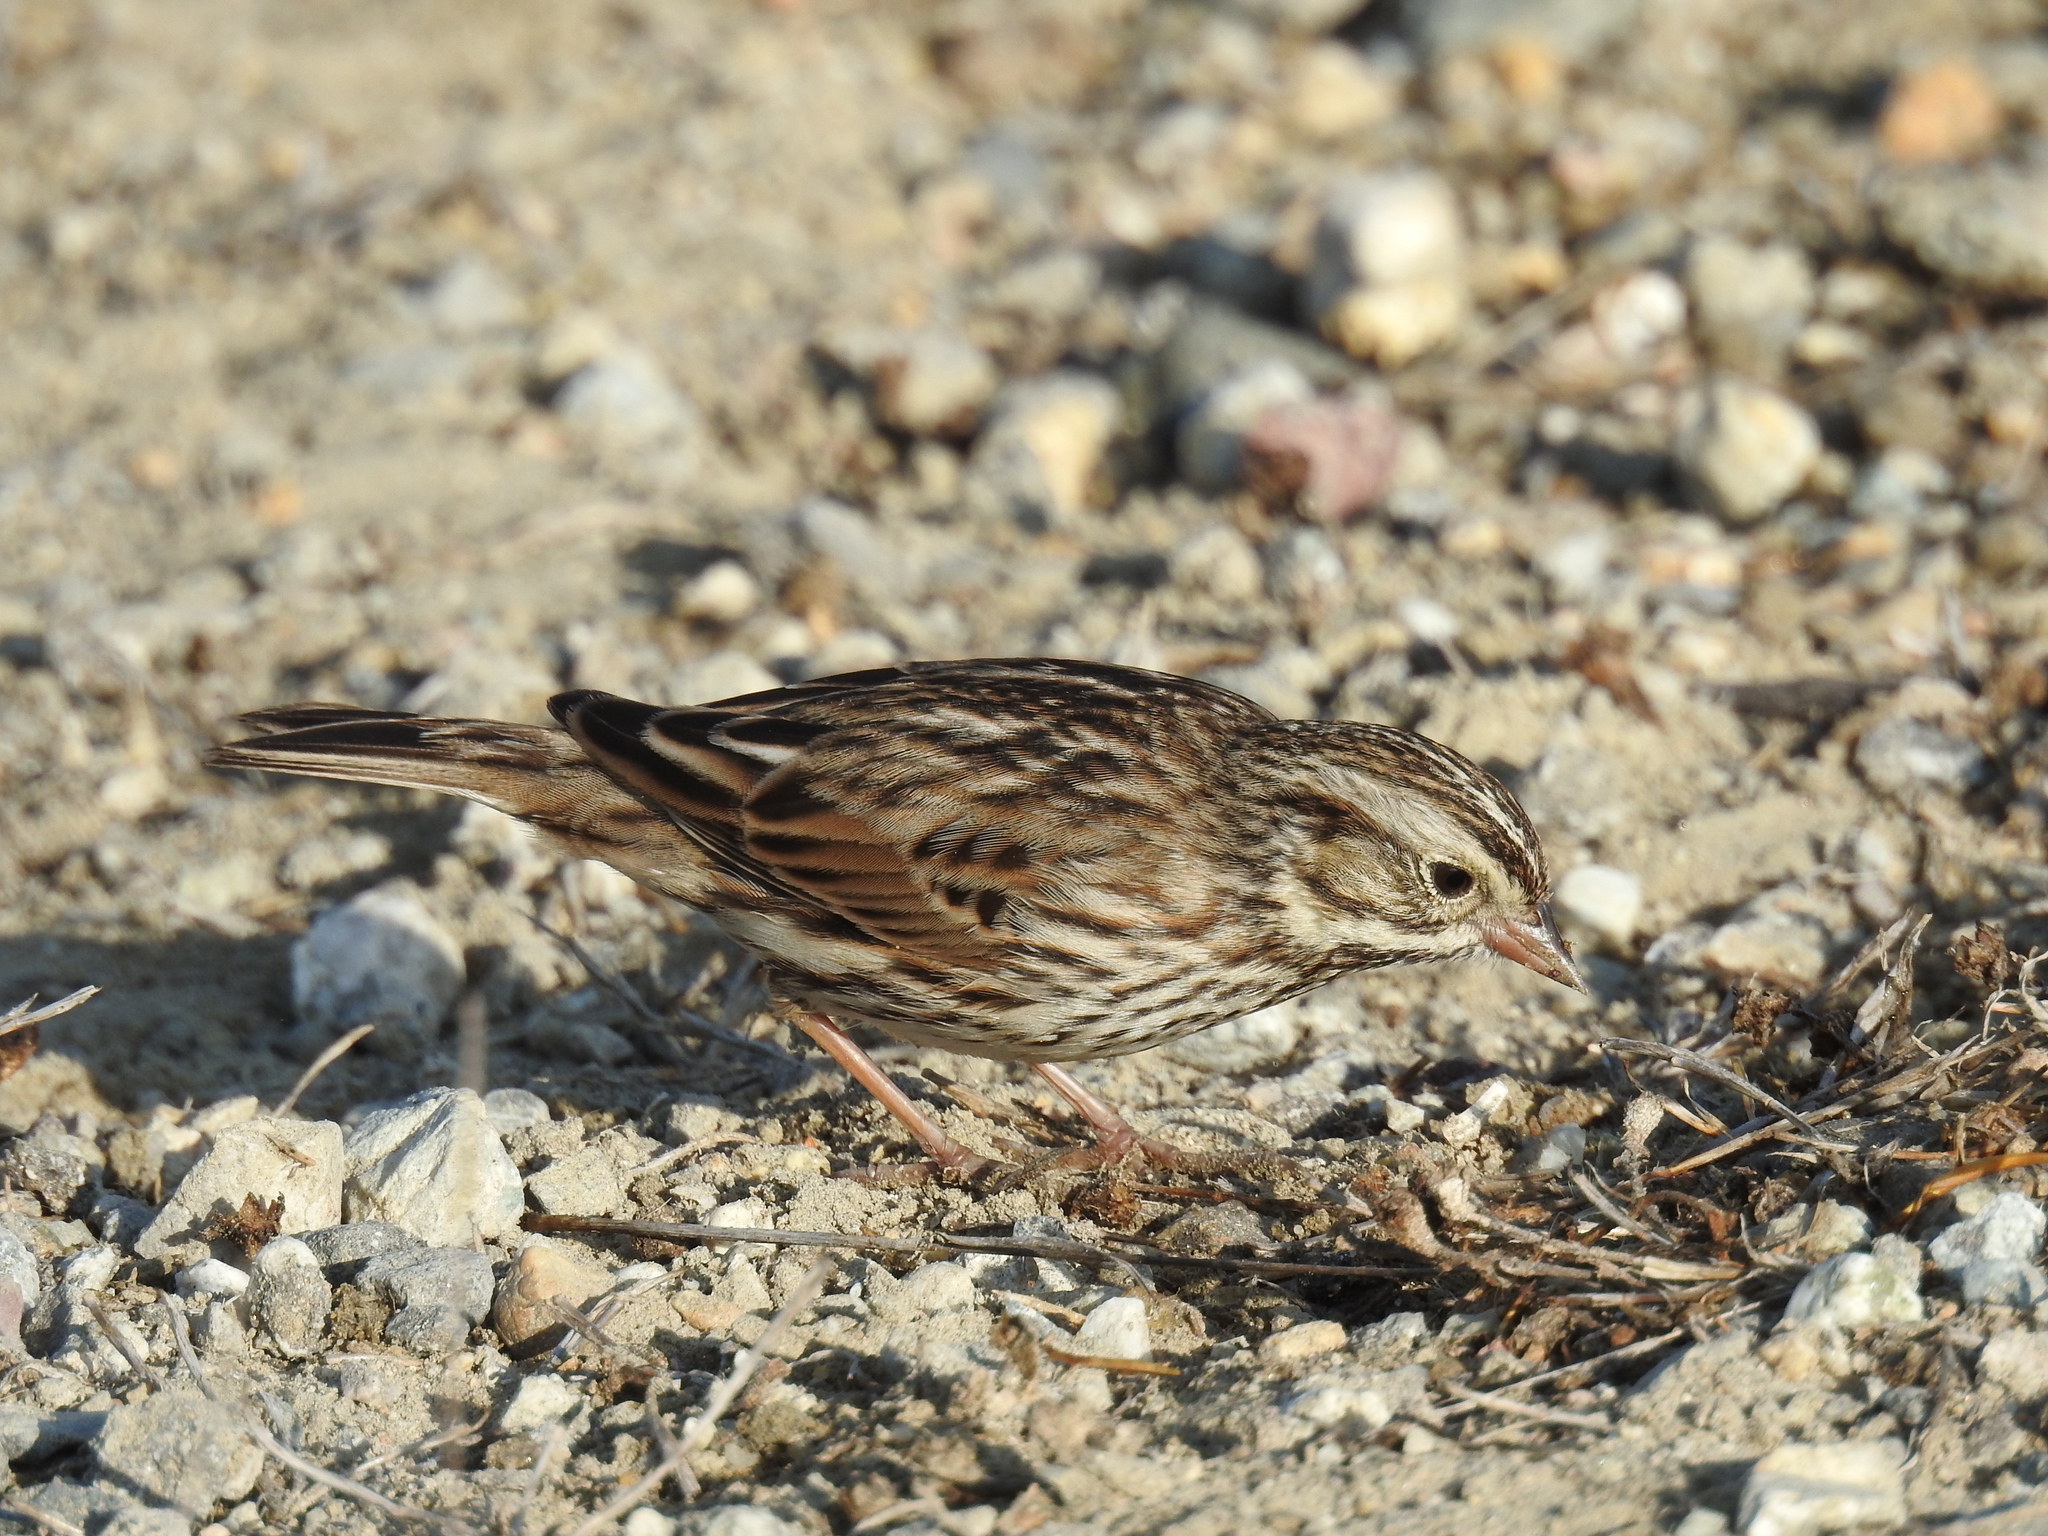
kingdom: Animalia
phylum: Chordata
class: Aves
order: Passeriformes
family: Passerellidae
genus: Passerculus
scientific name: Passerculus sandwichensis
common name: Savannah sparrow
